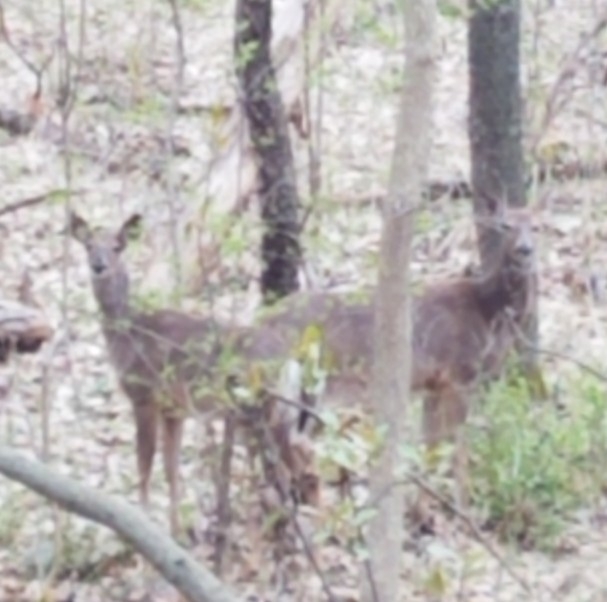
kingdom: Animalia
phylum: Chordata
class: Mammalia
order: Artiodactyla
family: Cervidae
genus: Odocoileus
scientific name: Odocoileus virginianus
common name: White-tailed deer
